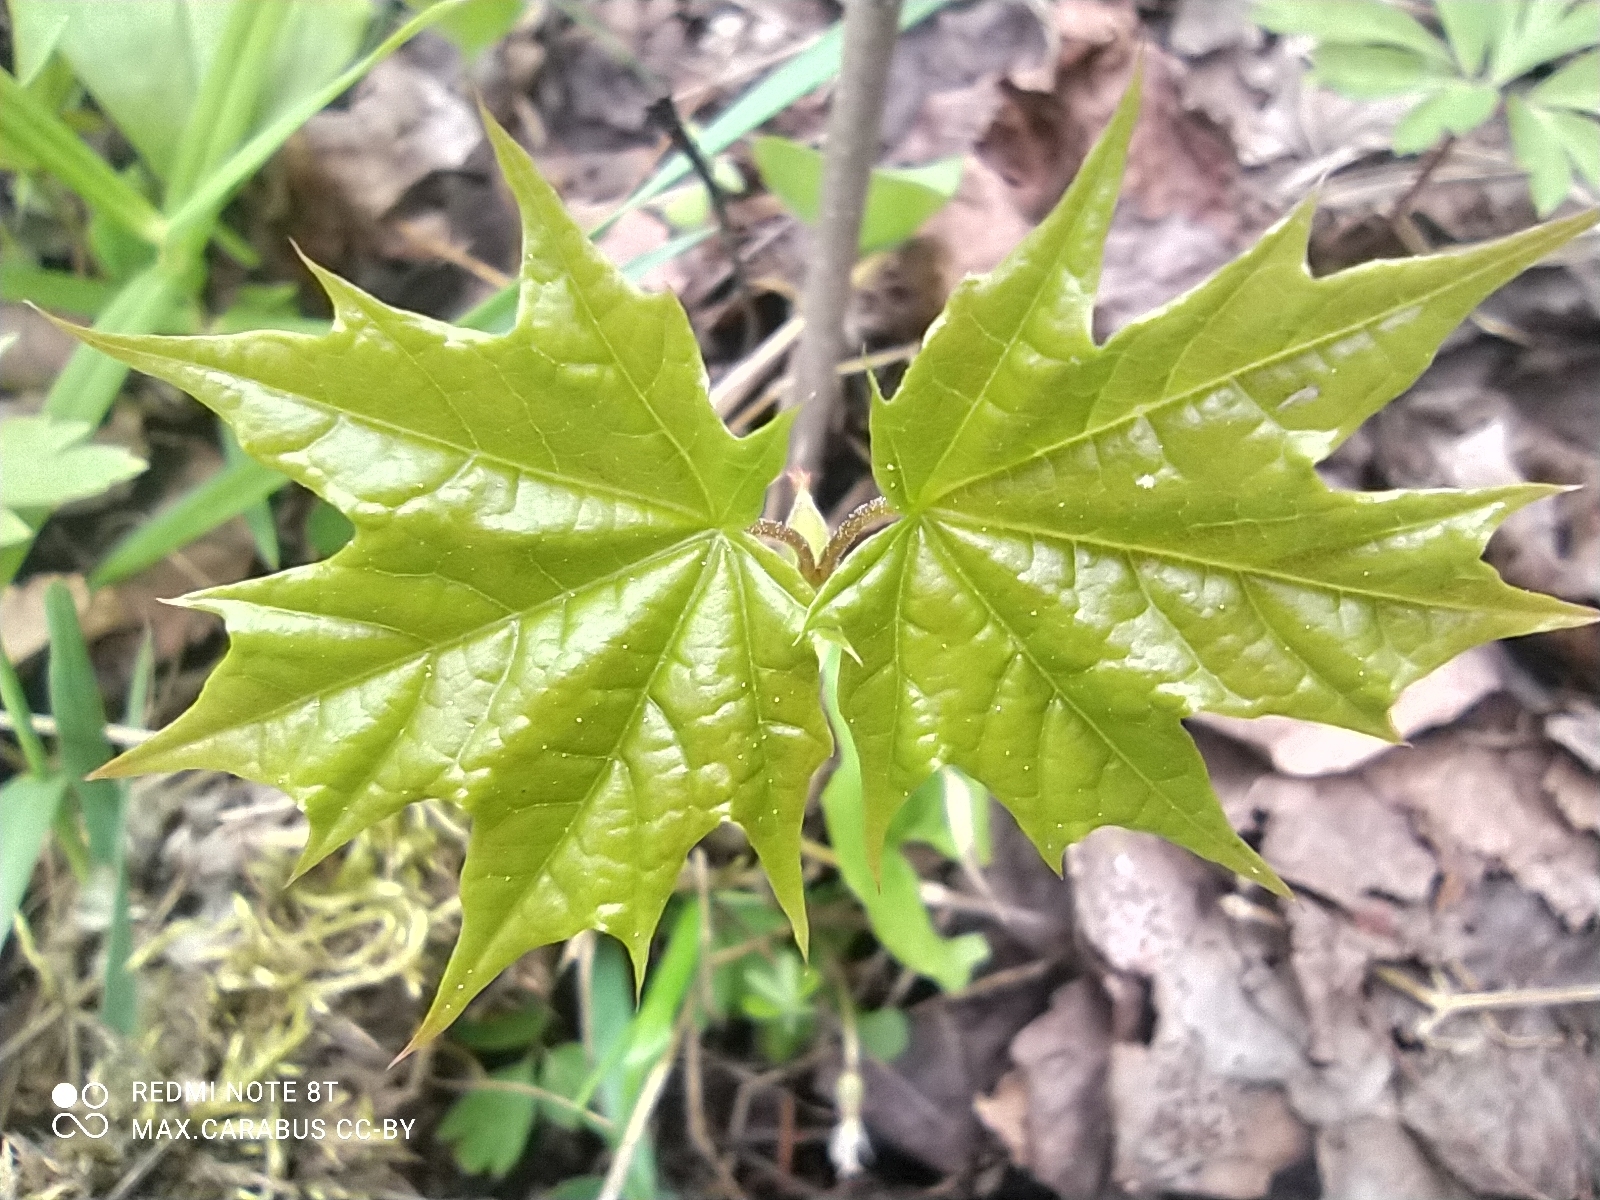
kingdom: Plantae
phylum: Tracheophyta
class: Magnoliopsida
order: Sapindales
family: Sapindaceae
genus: Acer
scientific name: Acer platanoides
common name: Norway maple
